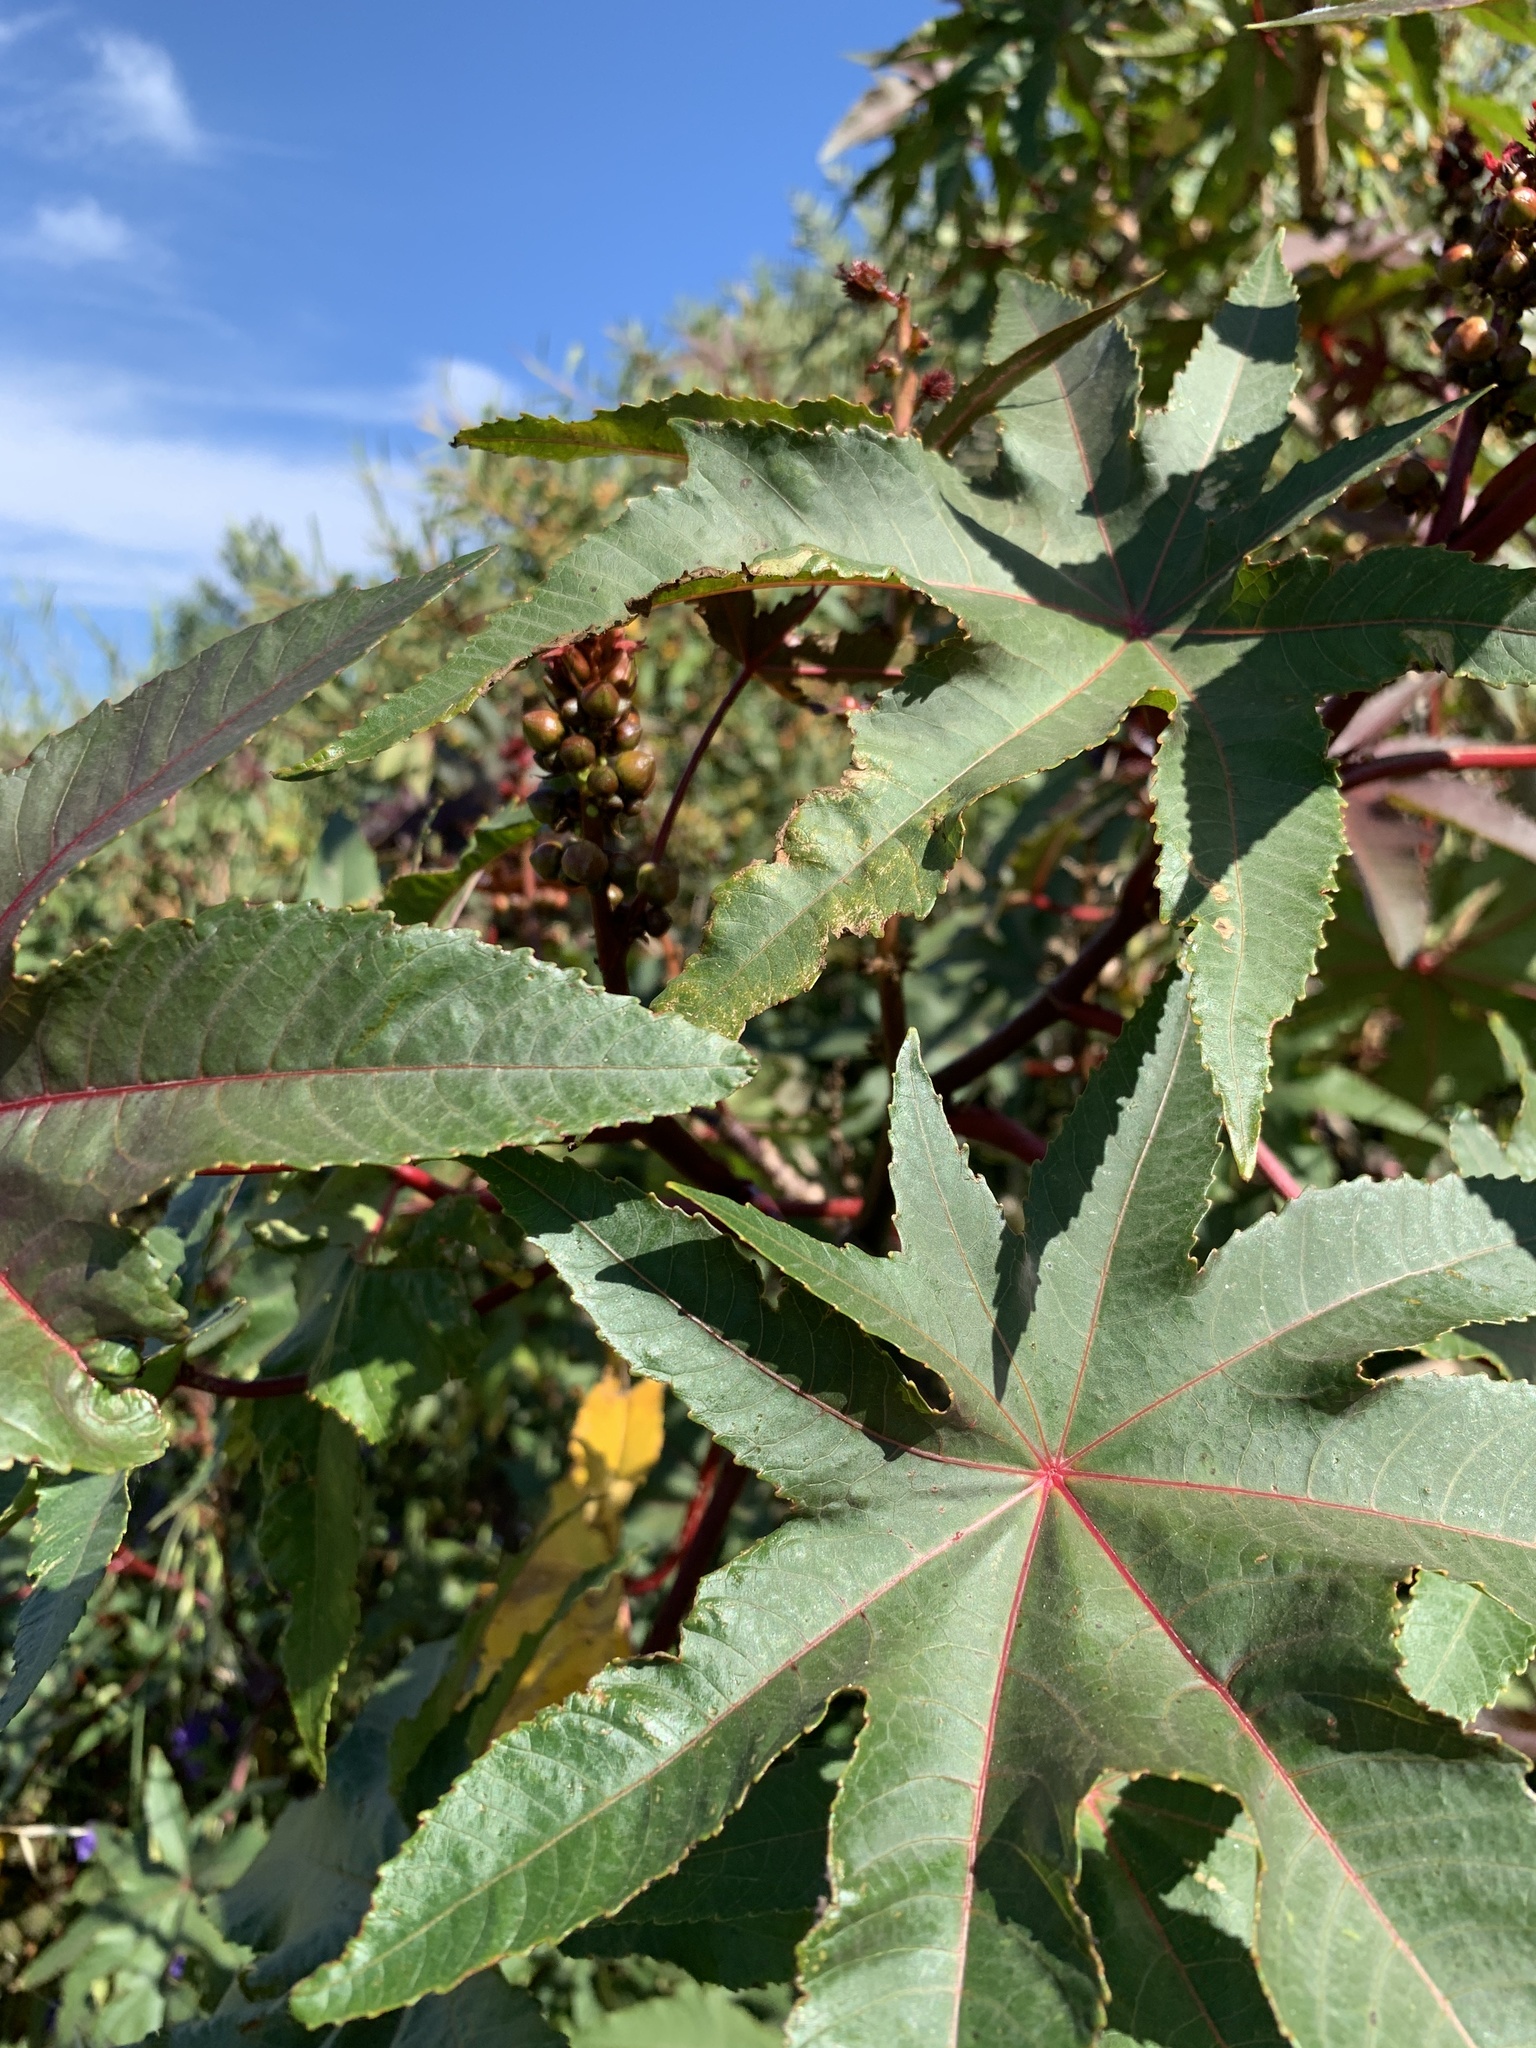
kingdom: Plantae
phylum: Tracheophyta
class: Magnoliopsida
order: Malpighiales
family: Euphorbiaceae
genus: Ricinus
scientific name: Ricinus communis
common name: Castor-oil-plant
